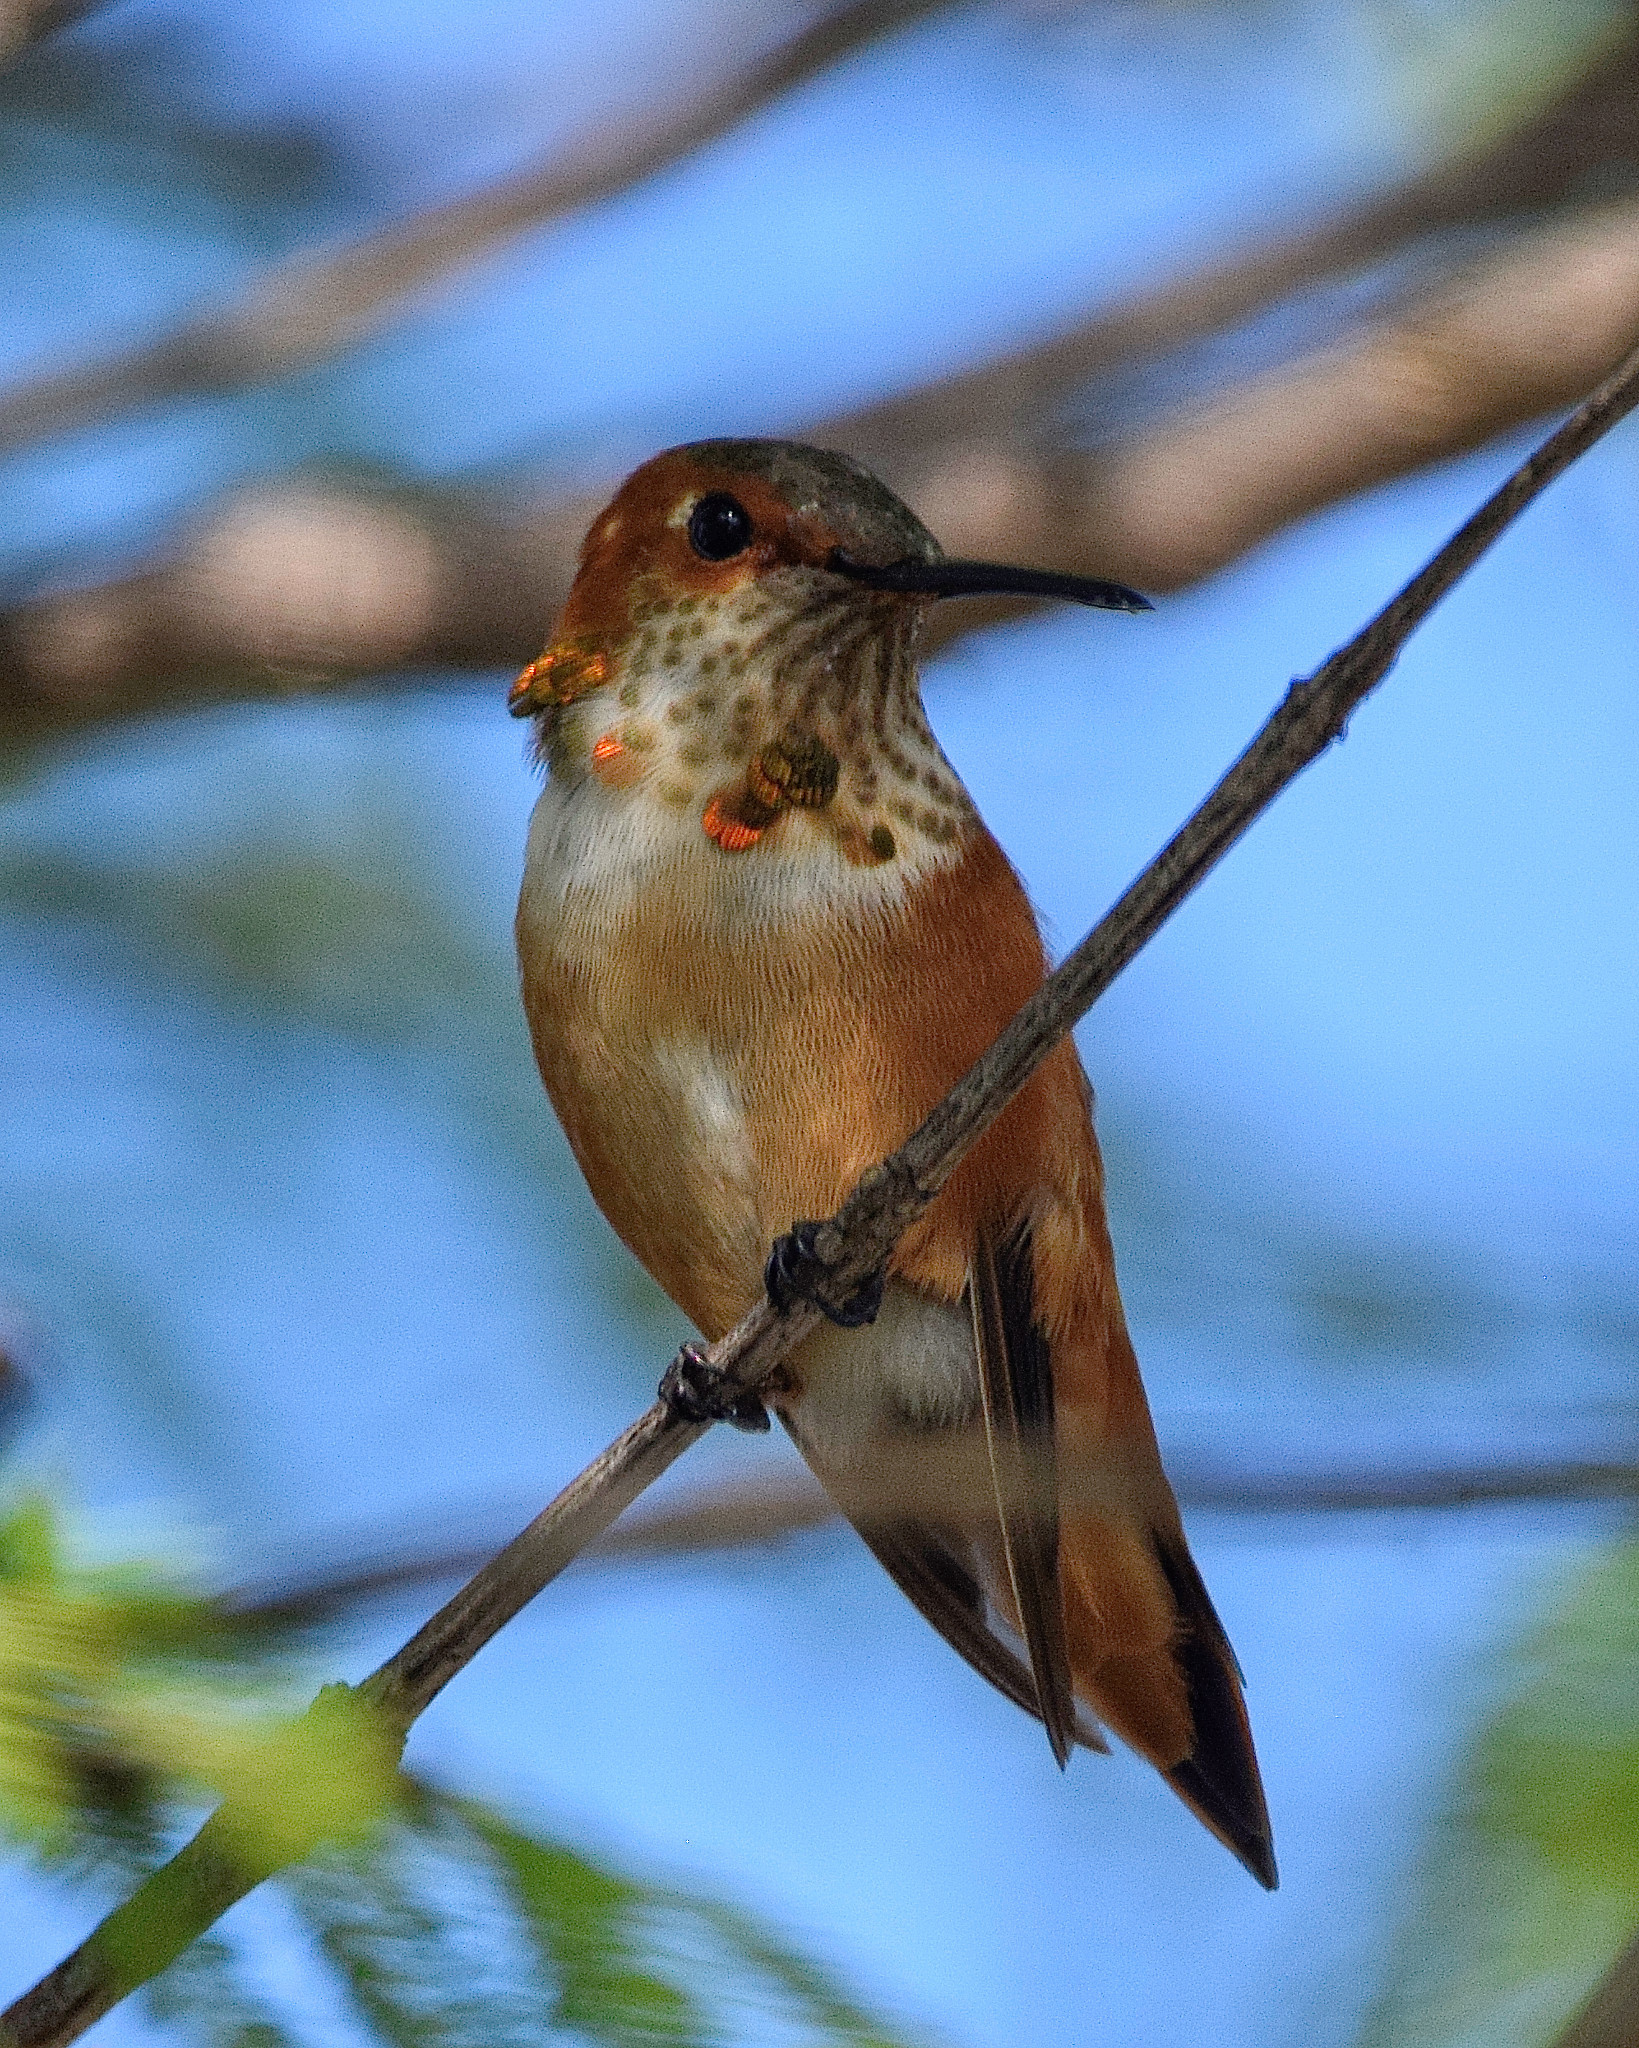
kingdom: Animalia
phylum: Chordata
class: Aves
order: Apodiformes
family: Trochilidae
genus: Selasphorus
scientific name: Selasphorus sasin
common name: Allen's hummingbird
